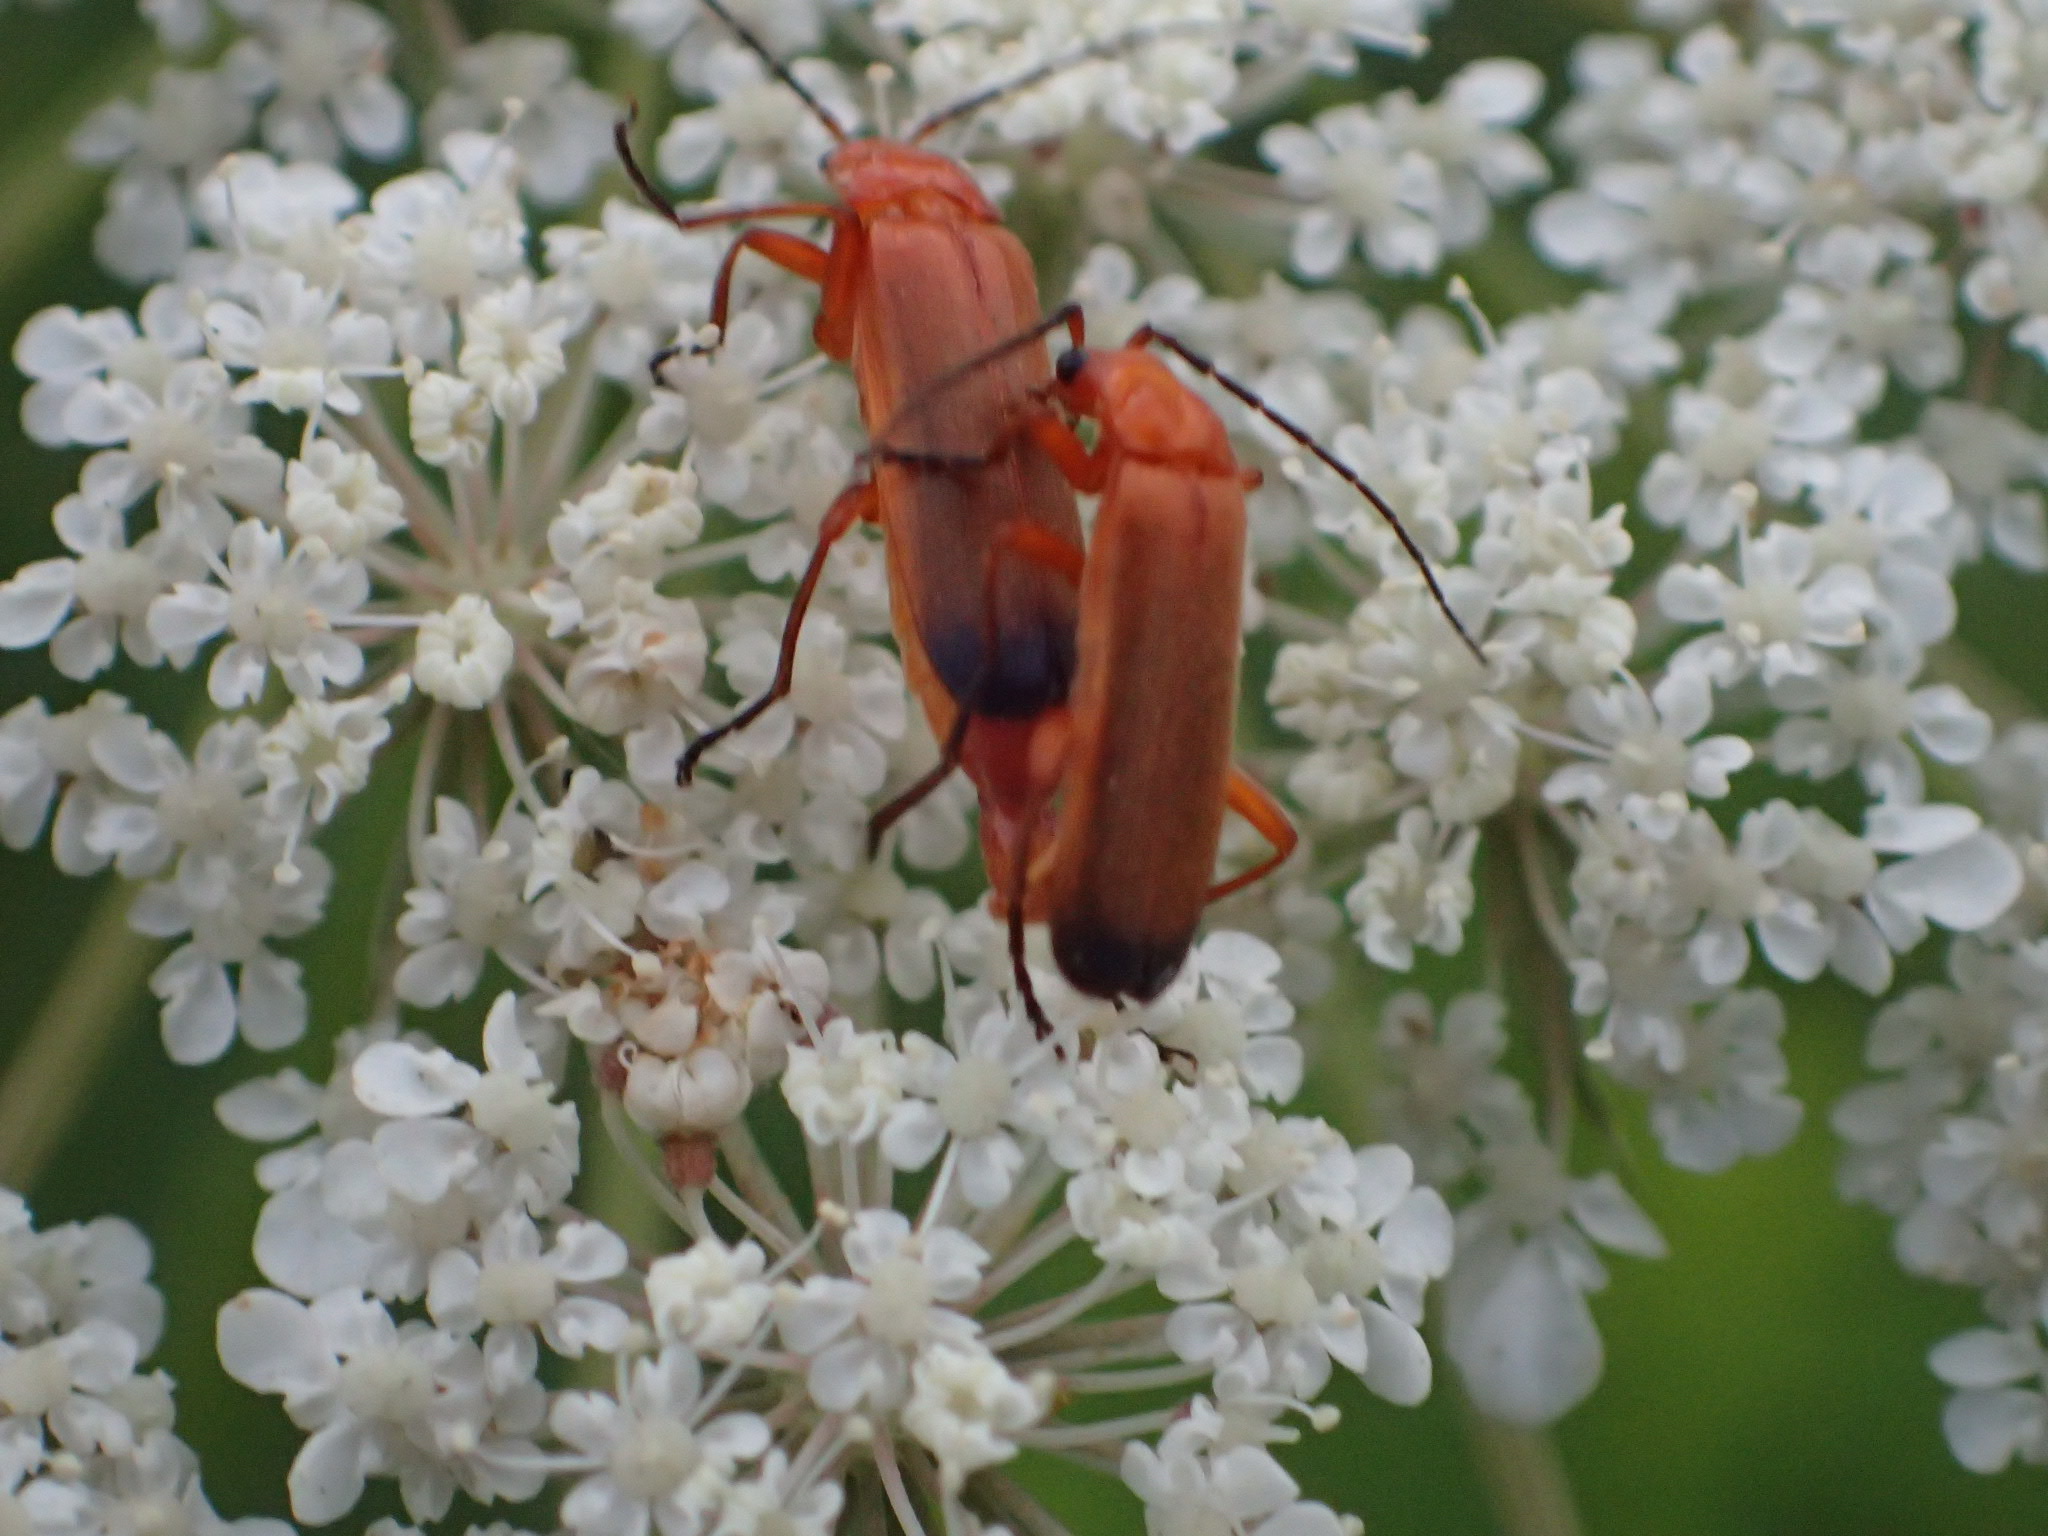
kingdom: Animalia
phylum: Arthropoda
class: Insecta
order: Coleoptera
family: Cantharidae
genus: Rhagonycha
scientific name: Rhagonycha fulva
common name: Common red soldier beetle
